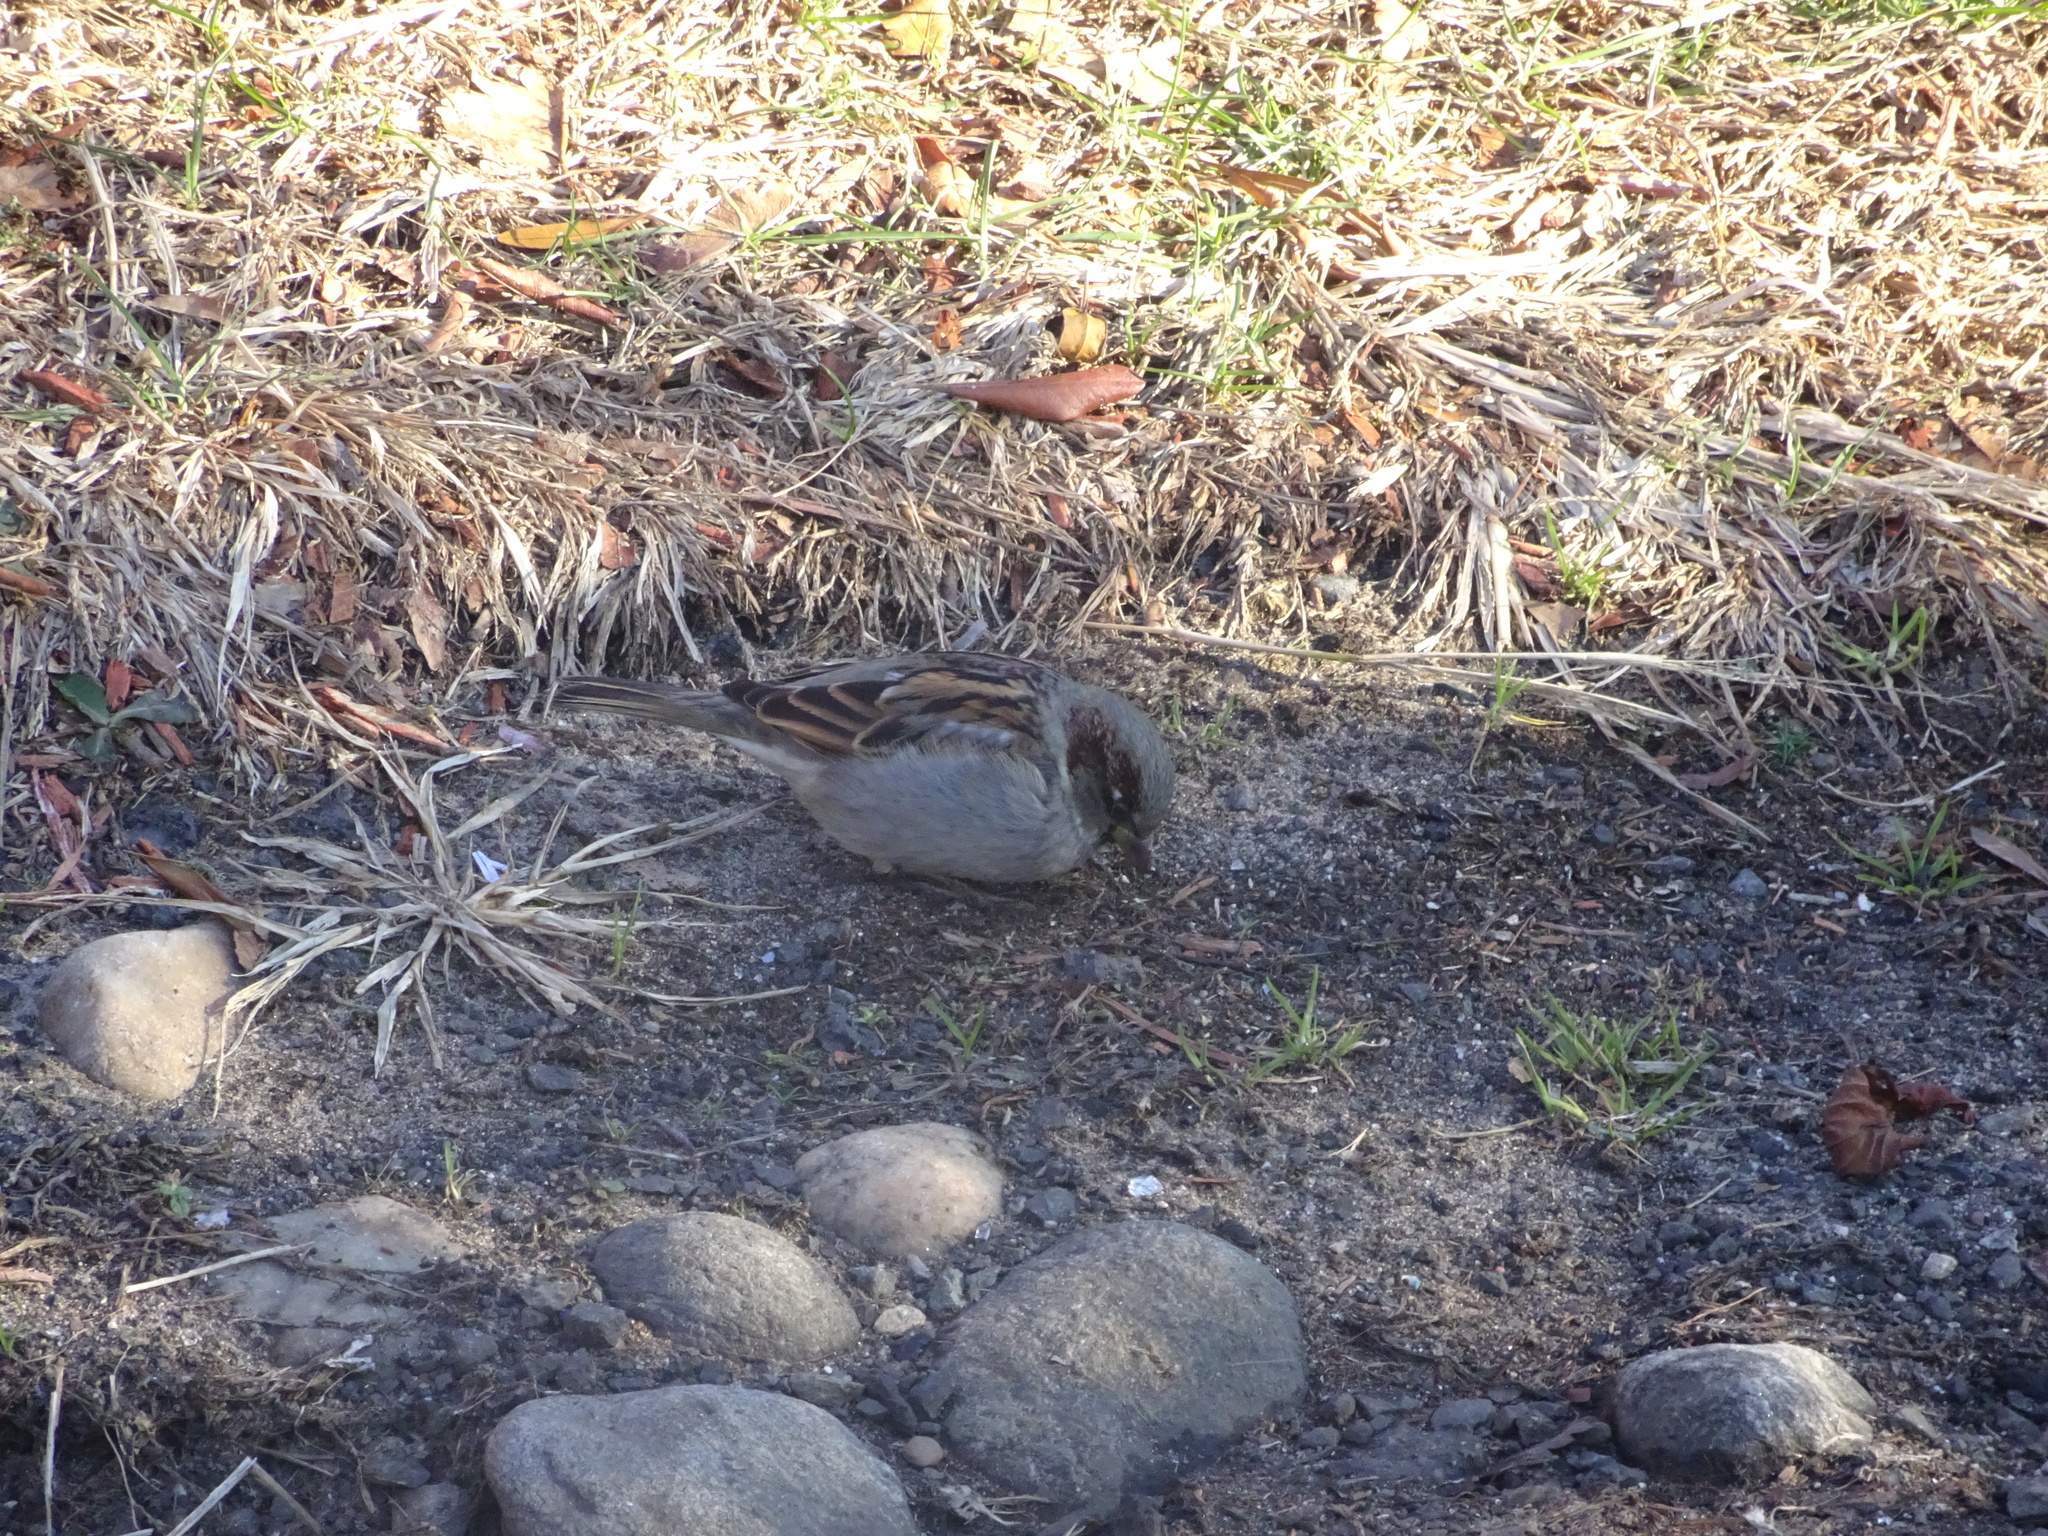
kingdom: Animalia
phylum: Chordata
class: Aves
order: Passeriformes
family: Passeridae
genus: Passer
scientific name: Passer domesticus
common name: House sparrow
